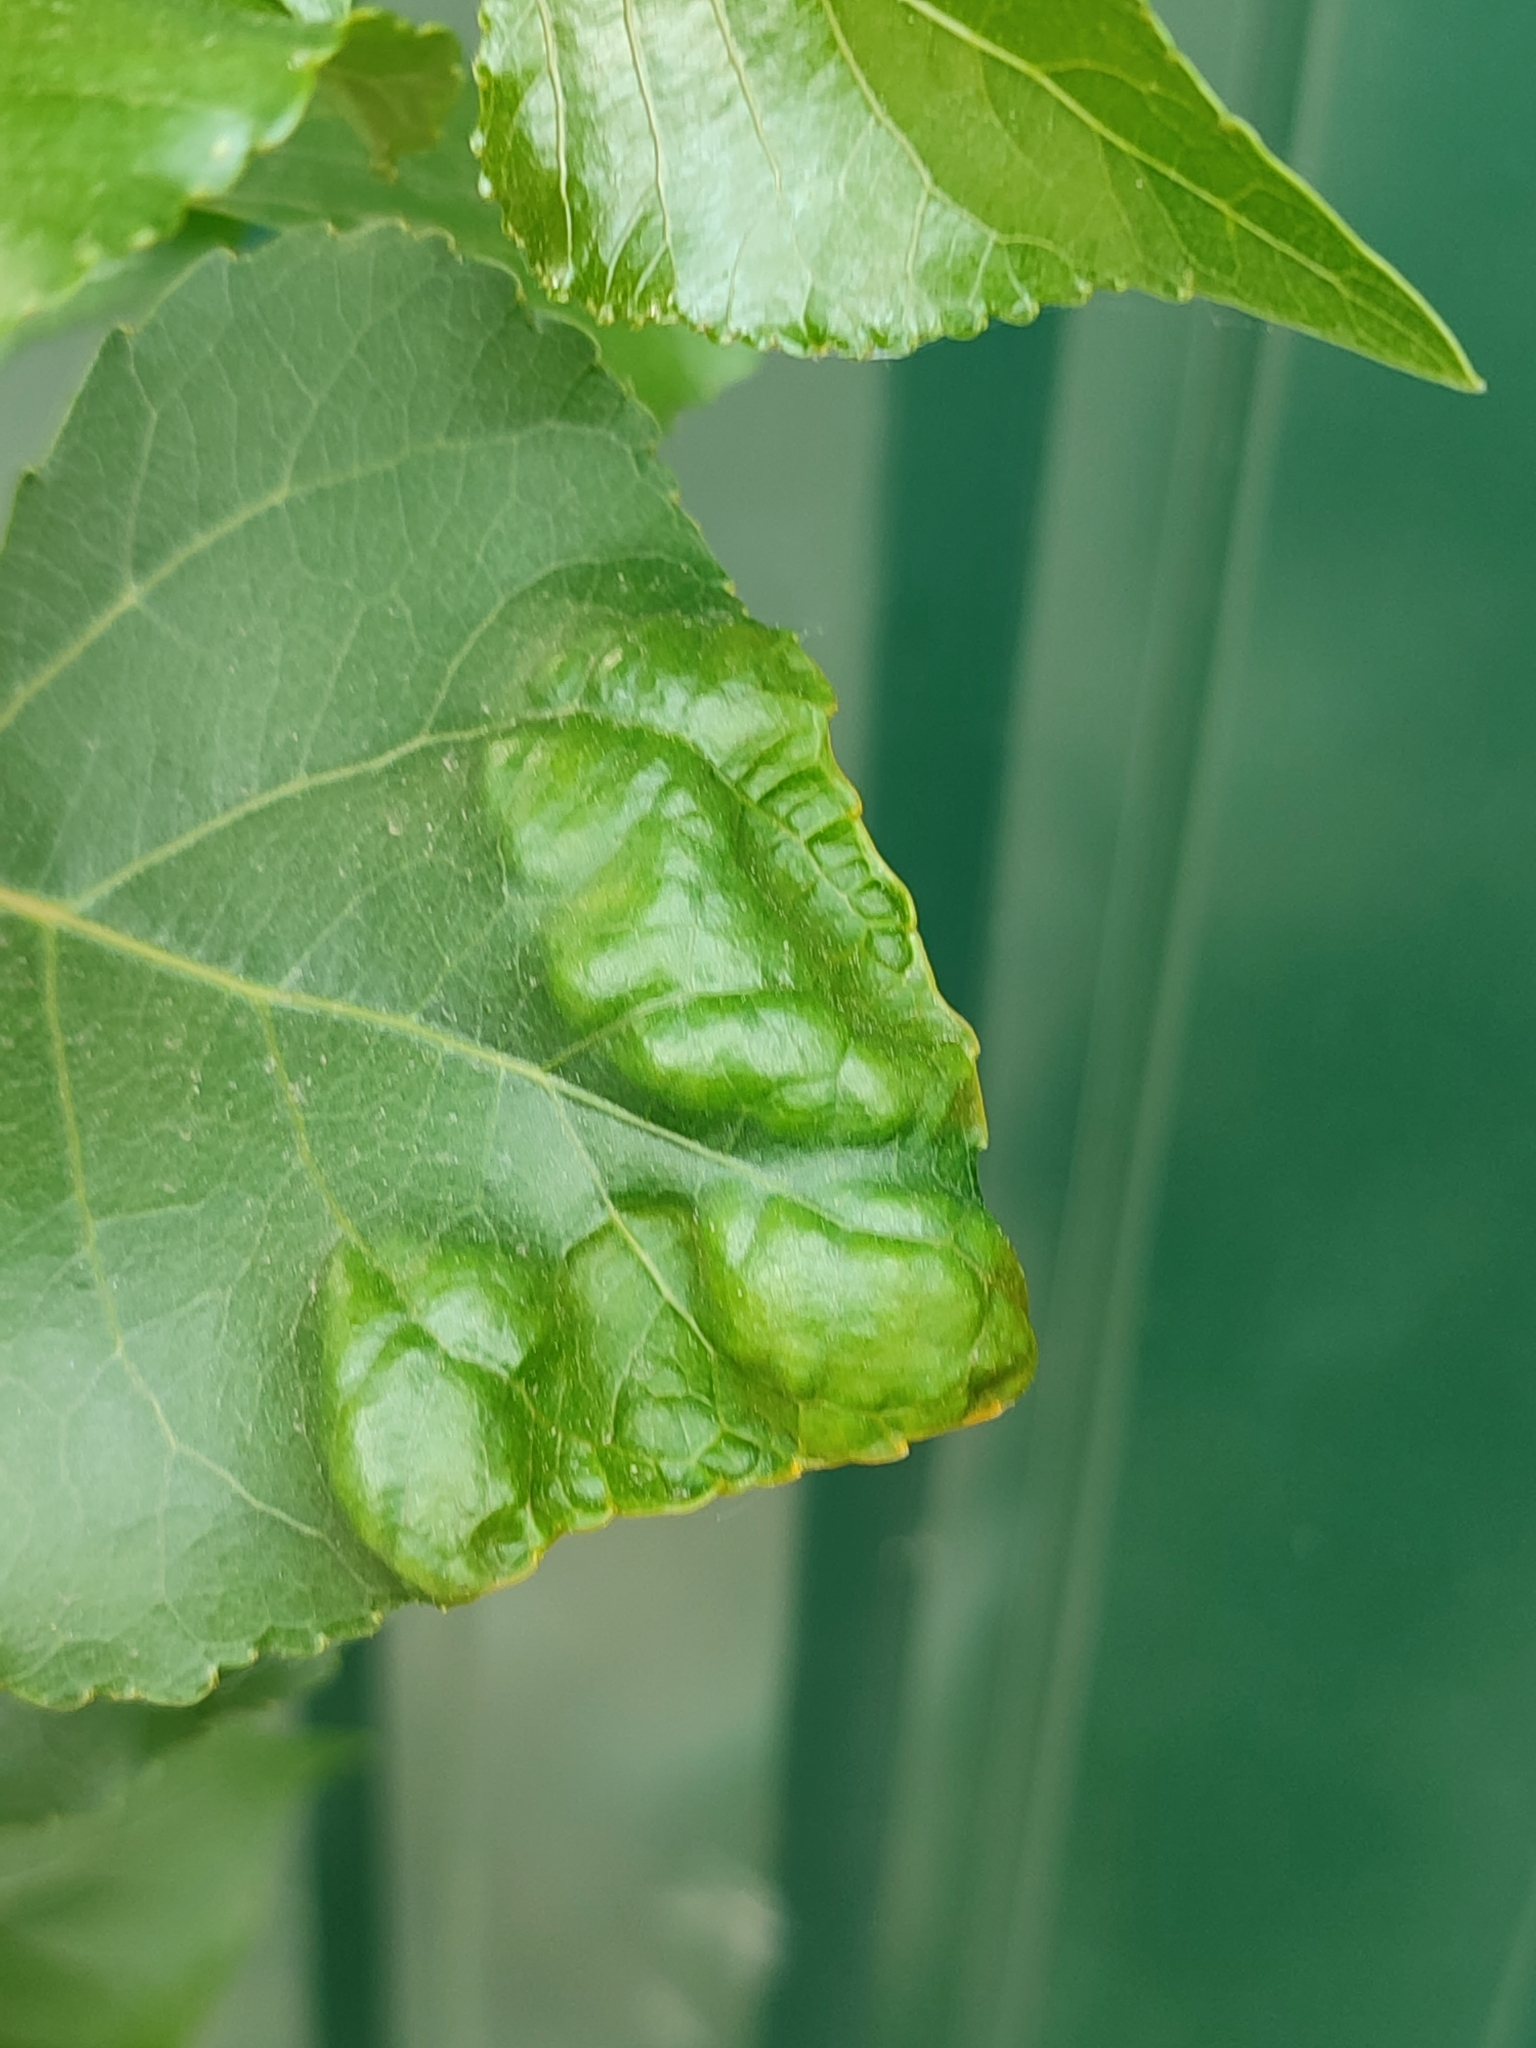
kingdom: Plantae
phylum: Tracheophyta
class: Magnoliopsida
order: Malpighiales
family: Salicaceae
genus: Populus
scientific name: Populus nigra
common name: Black poplar
